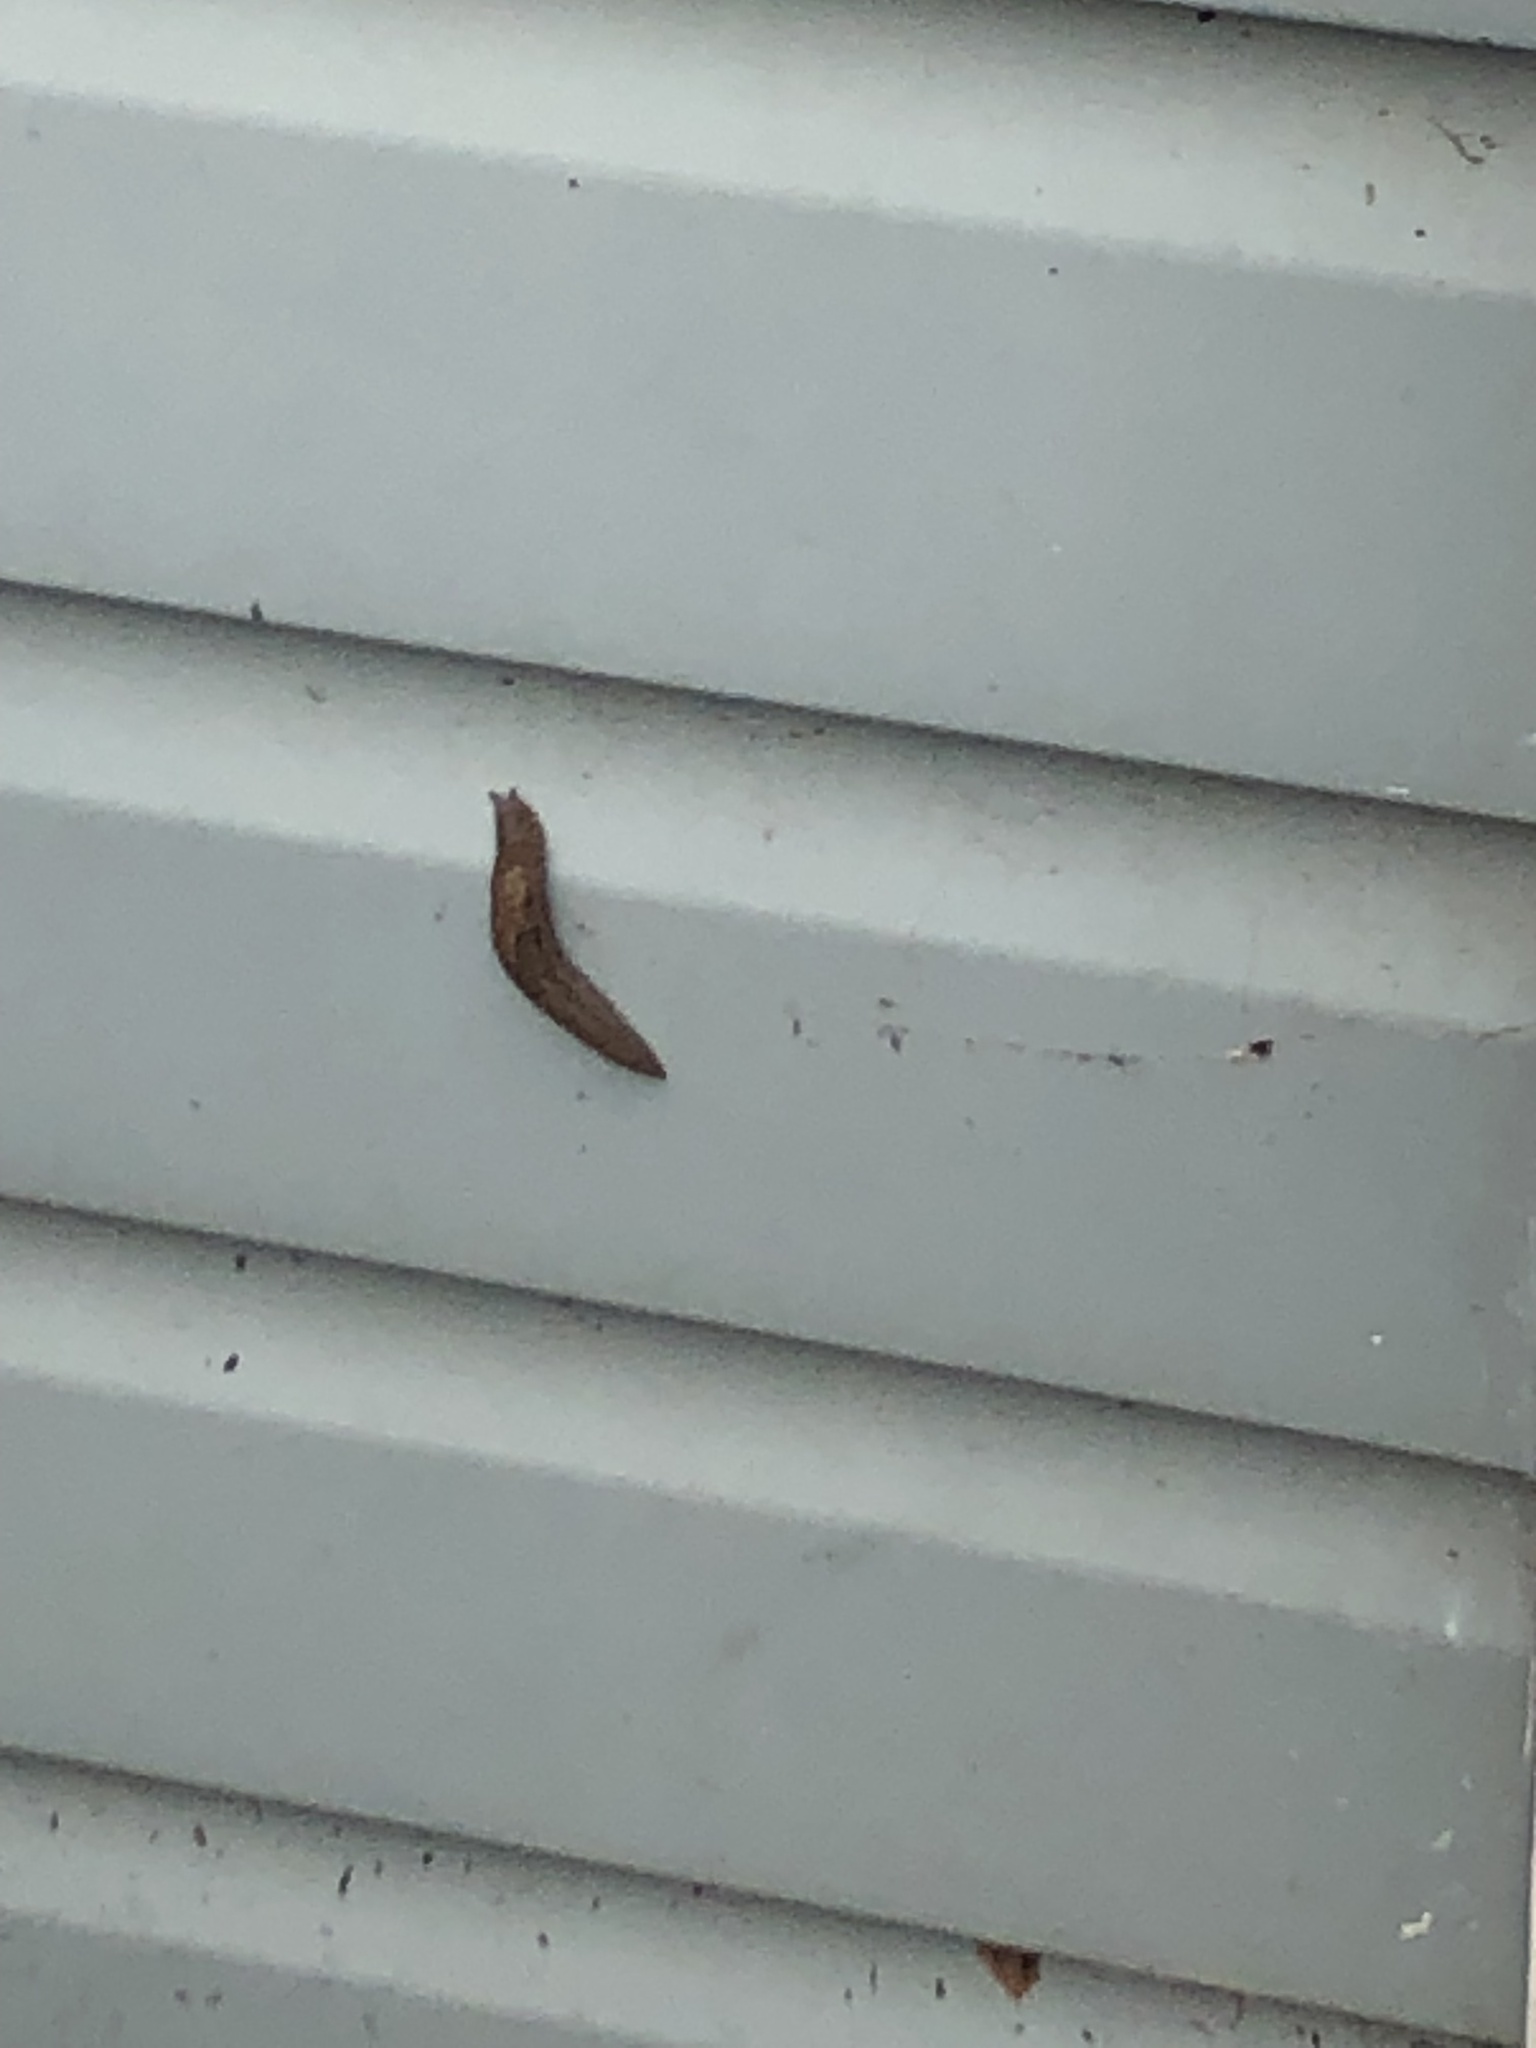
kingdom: Animalia
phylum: Mollusca
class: Gastropoda
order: Stylommatophora
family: Limacidae
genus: Limax
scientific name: Limax maximus
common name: Great grey slug
